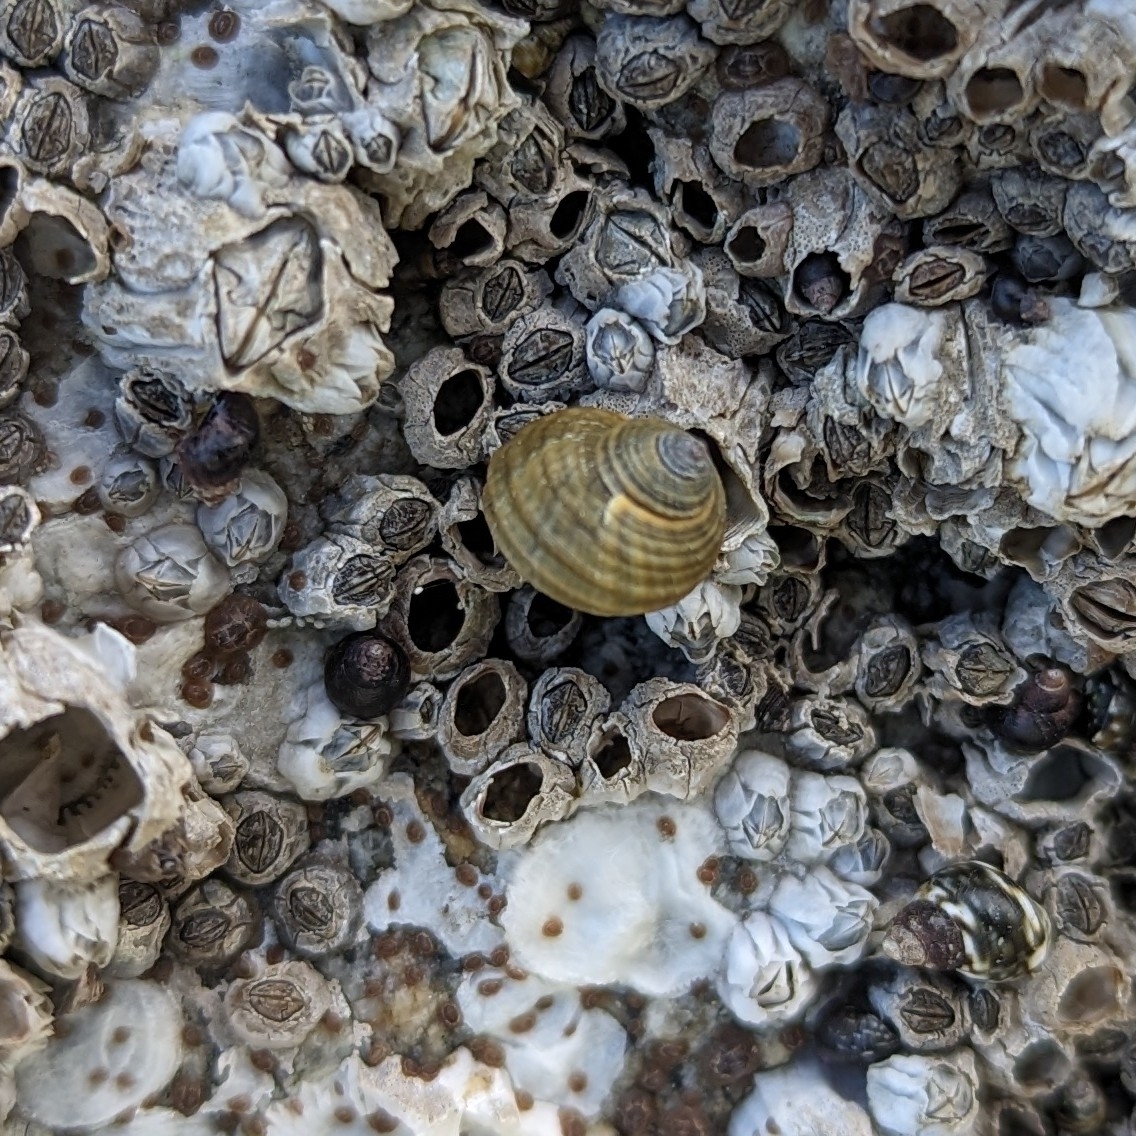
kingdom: Animalia
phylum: Mollusca
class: Gastropoda
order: Littorinimorpha
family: Littorinidae
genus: Littorina
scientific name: Littorina sitkana
